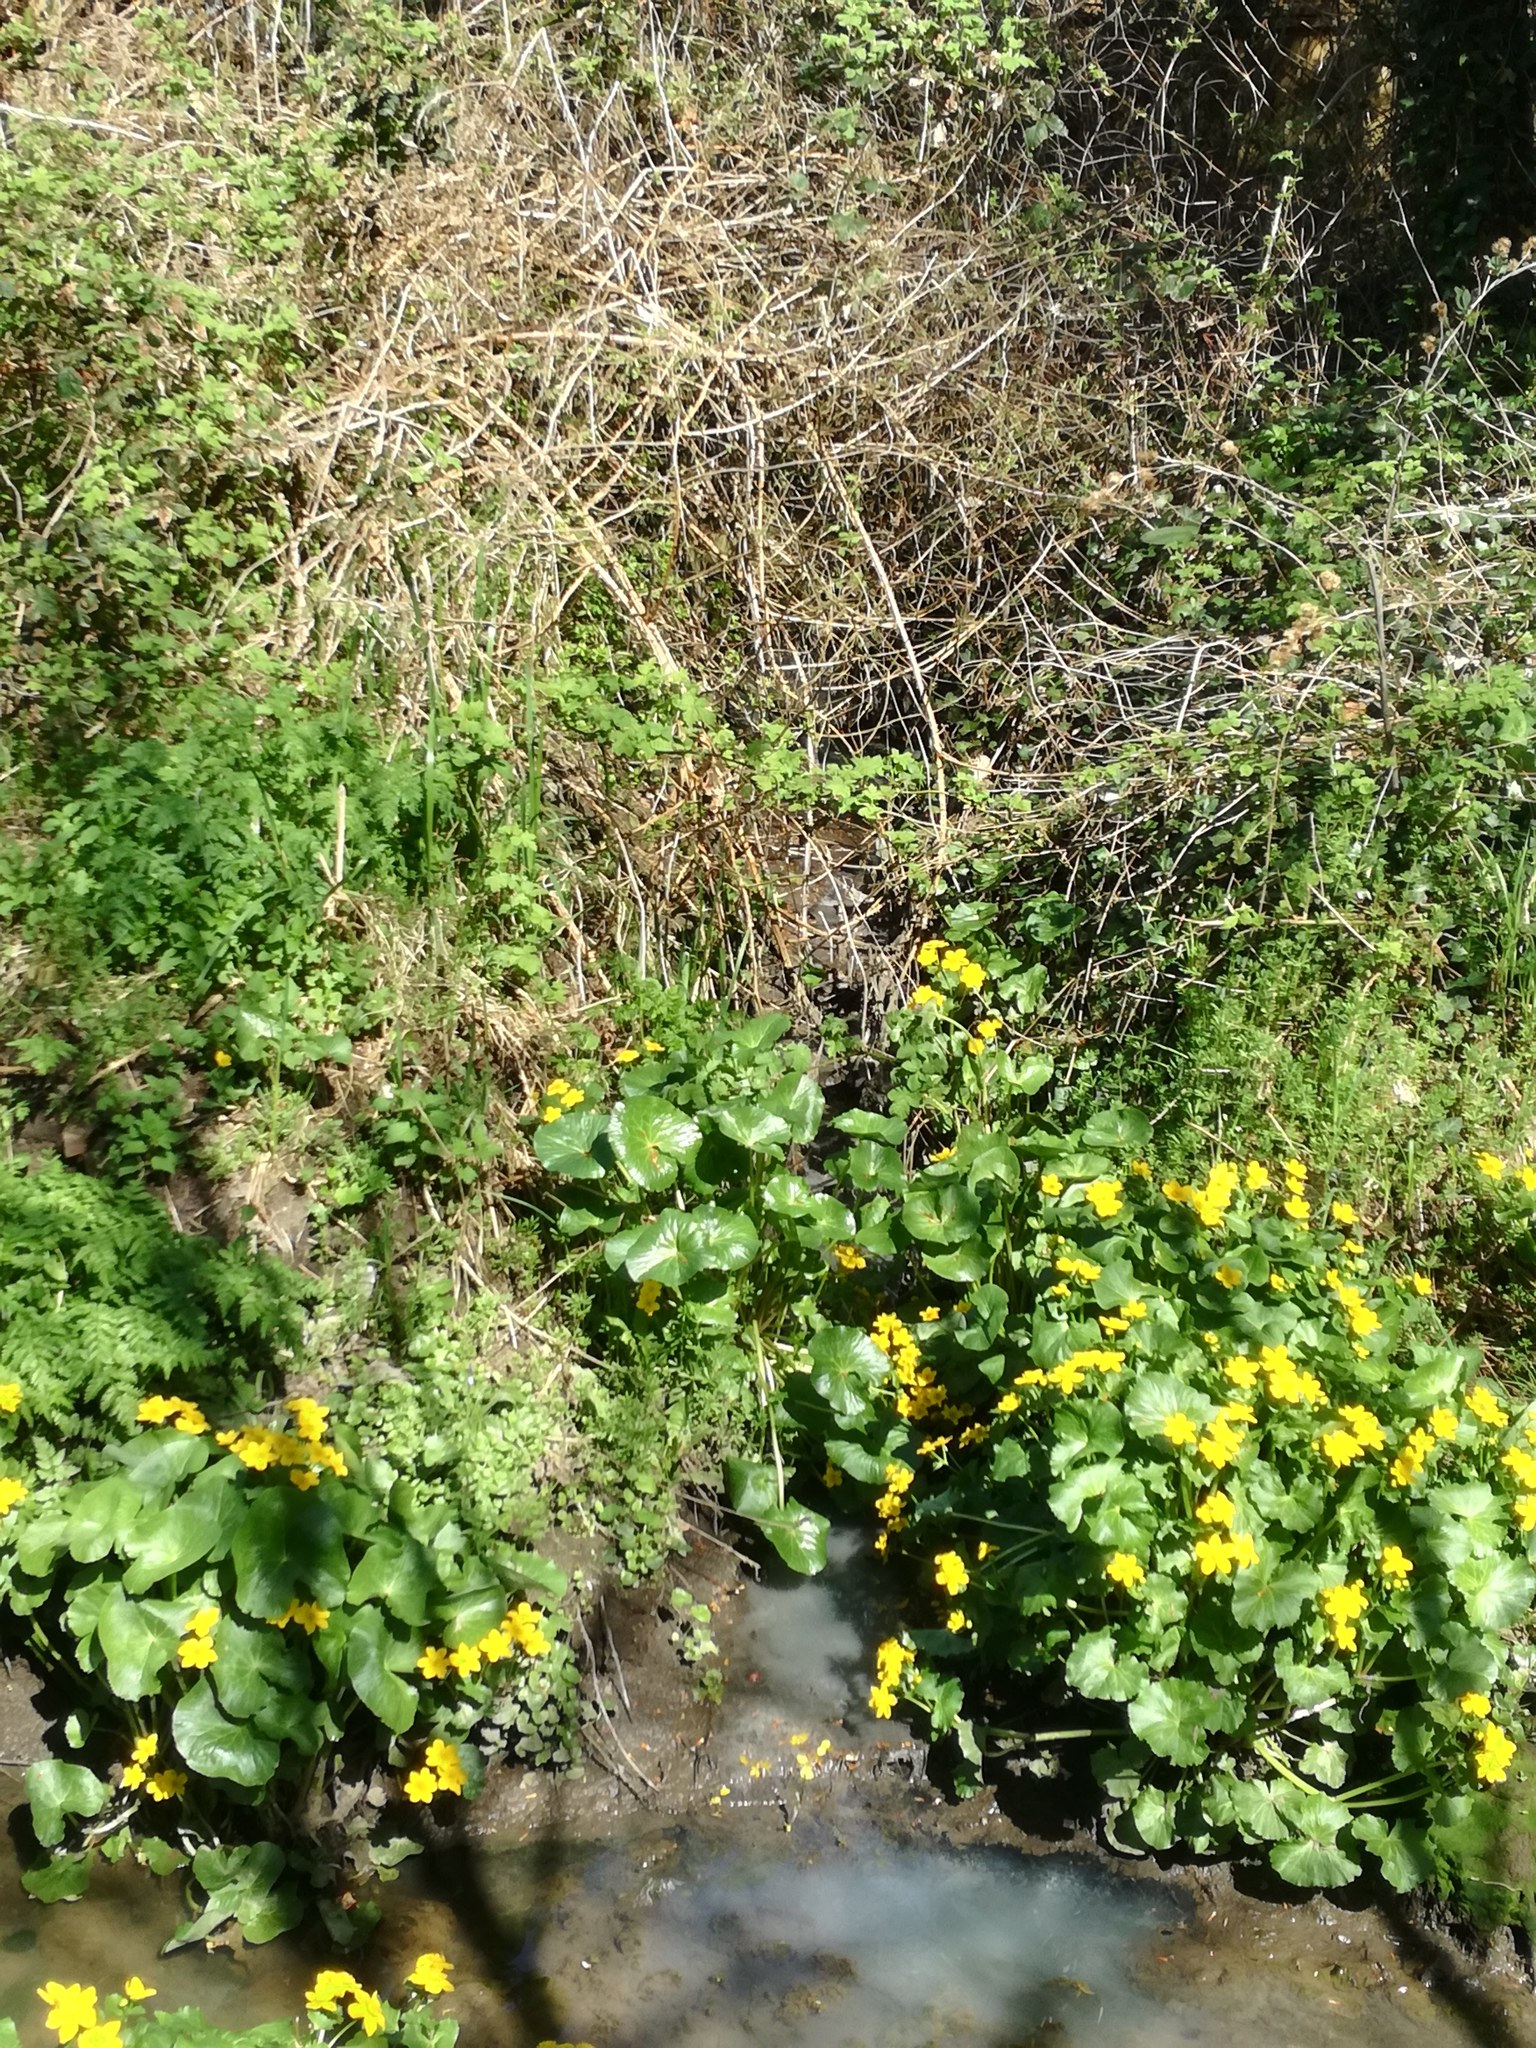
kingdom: Plantae
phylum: Tracheophyta
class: Magnoliopsida
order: Ranunculales
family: Ranunculaceae
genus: Caltha
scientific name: Caltha palustris
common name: Marsh marigold
